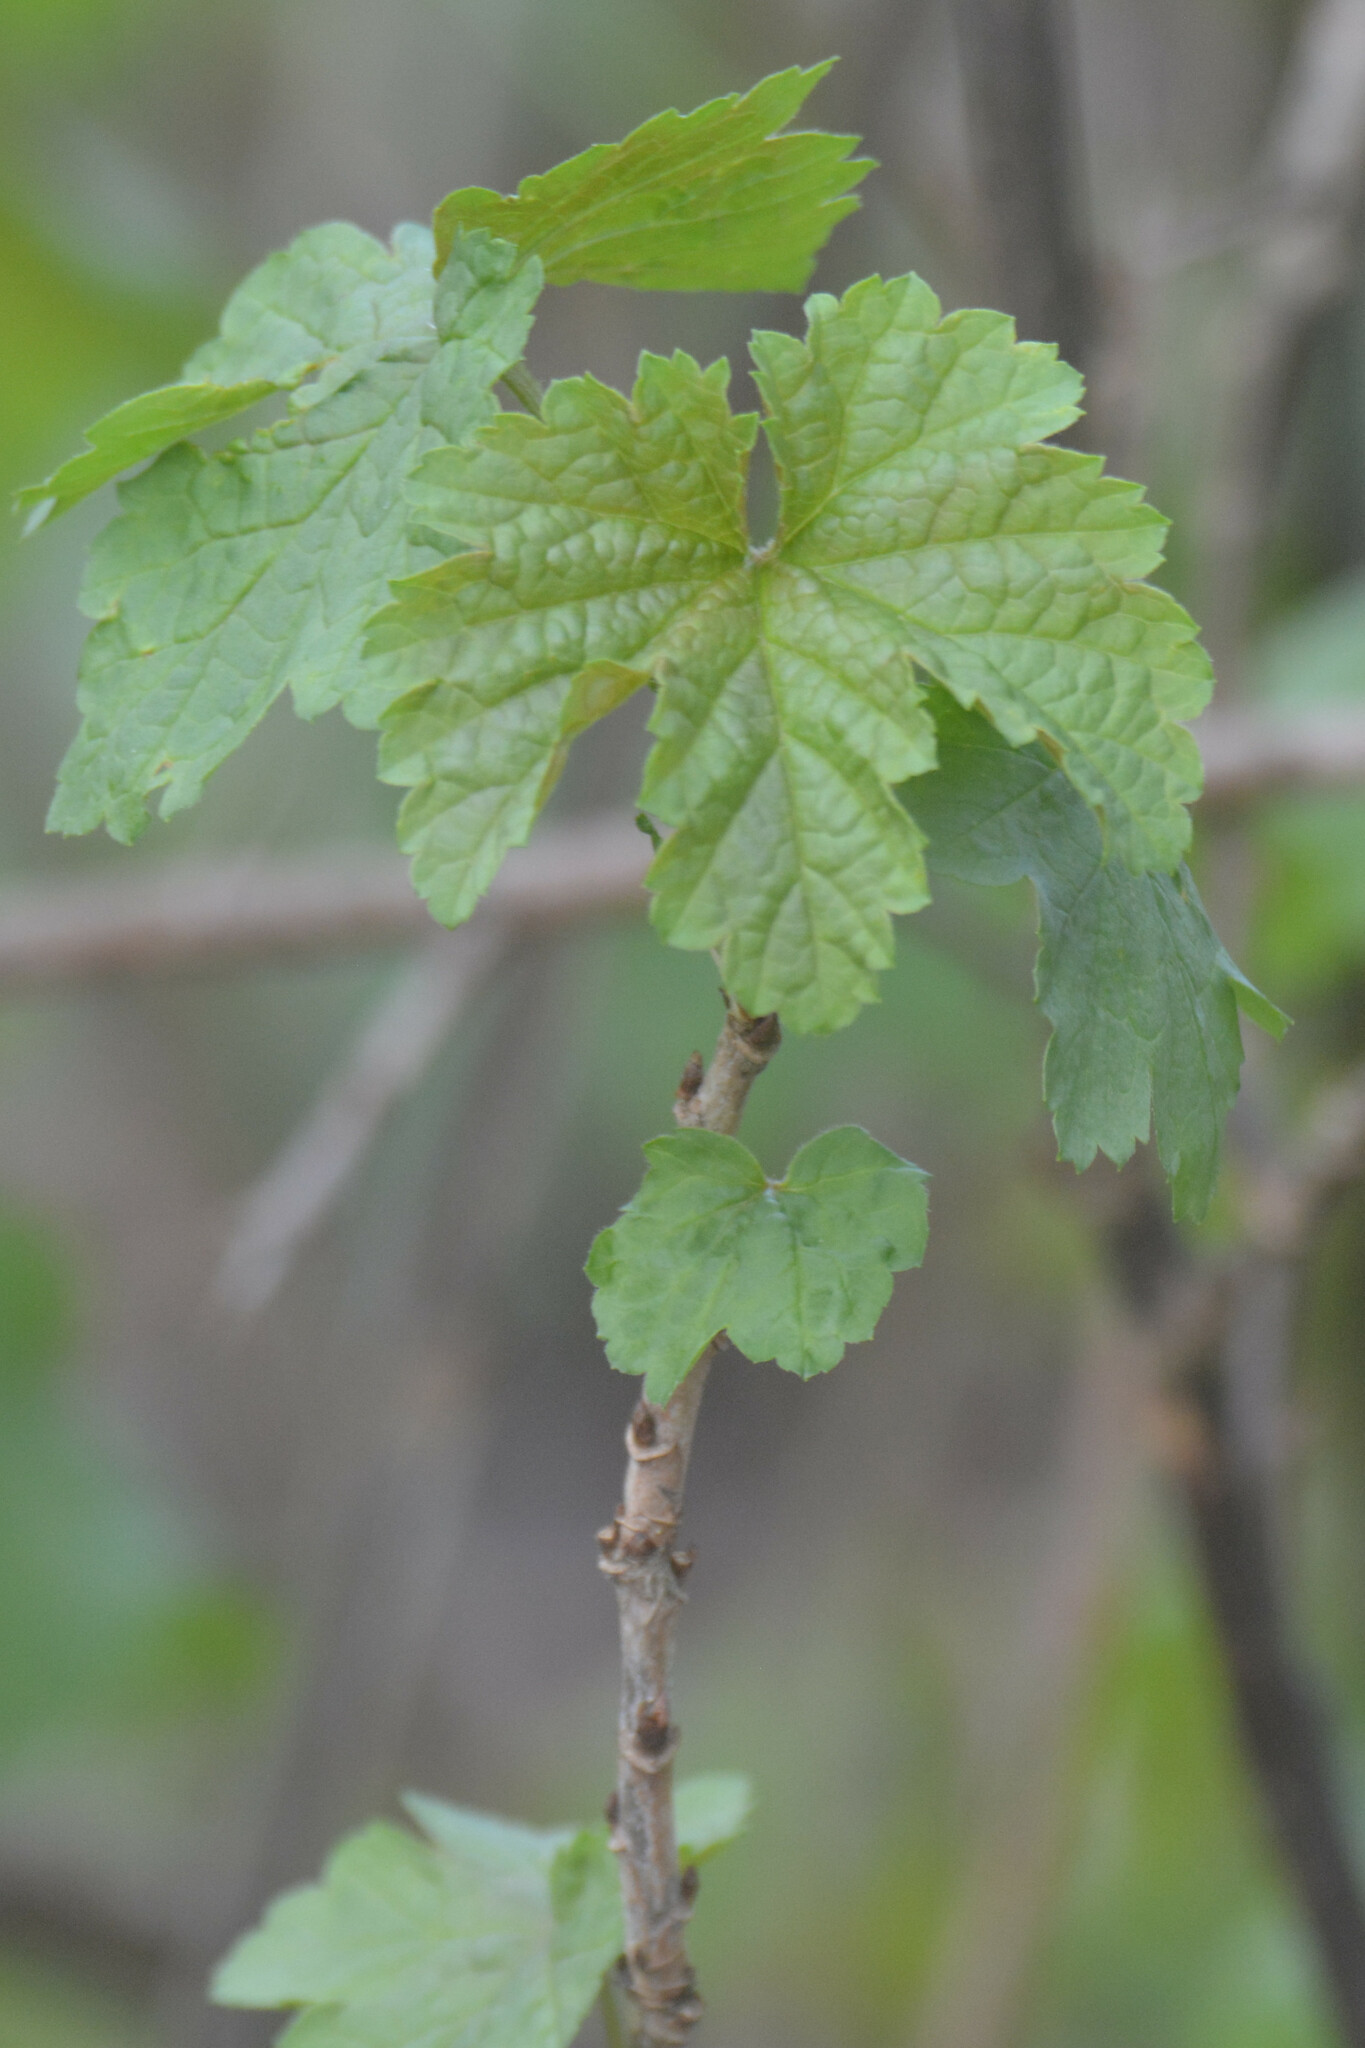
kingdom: Plantae
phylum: Tracheophyta
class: Magnoliopsida
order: Saxifragales
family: Grossulariaceae
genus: Ribes
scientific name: Ribes sanguineum
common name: Flowering currant
